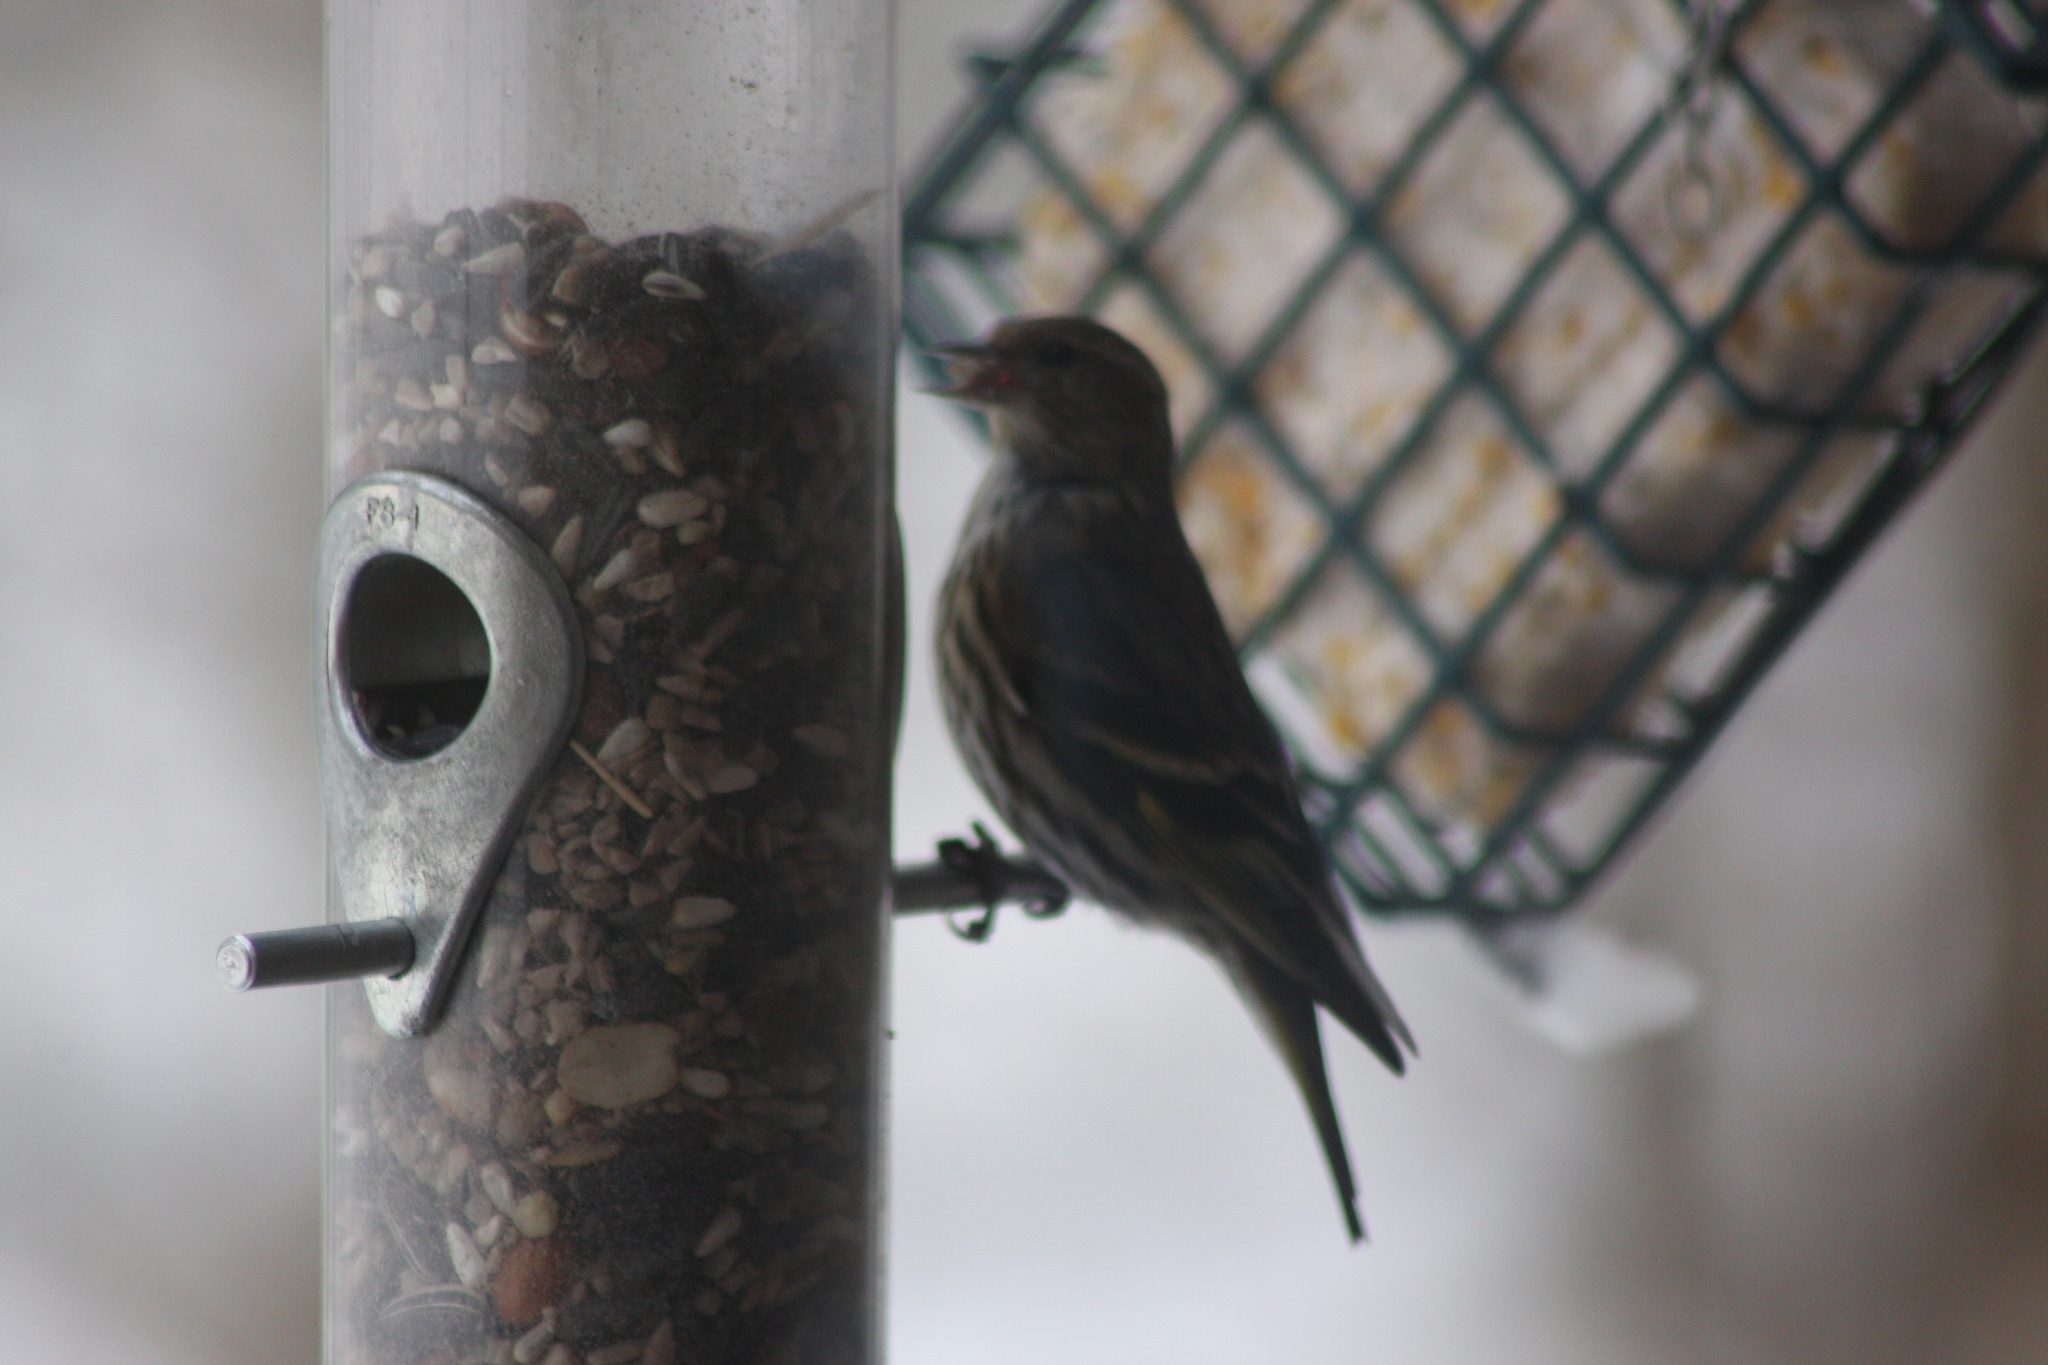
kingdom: Animalia
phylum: Chordata
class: Aves
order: Passeriformes
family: Fringillidae
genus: Spinus
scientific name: Spinus pinus
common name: Pine siskin
